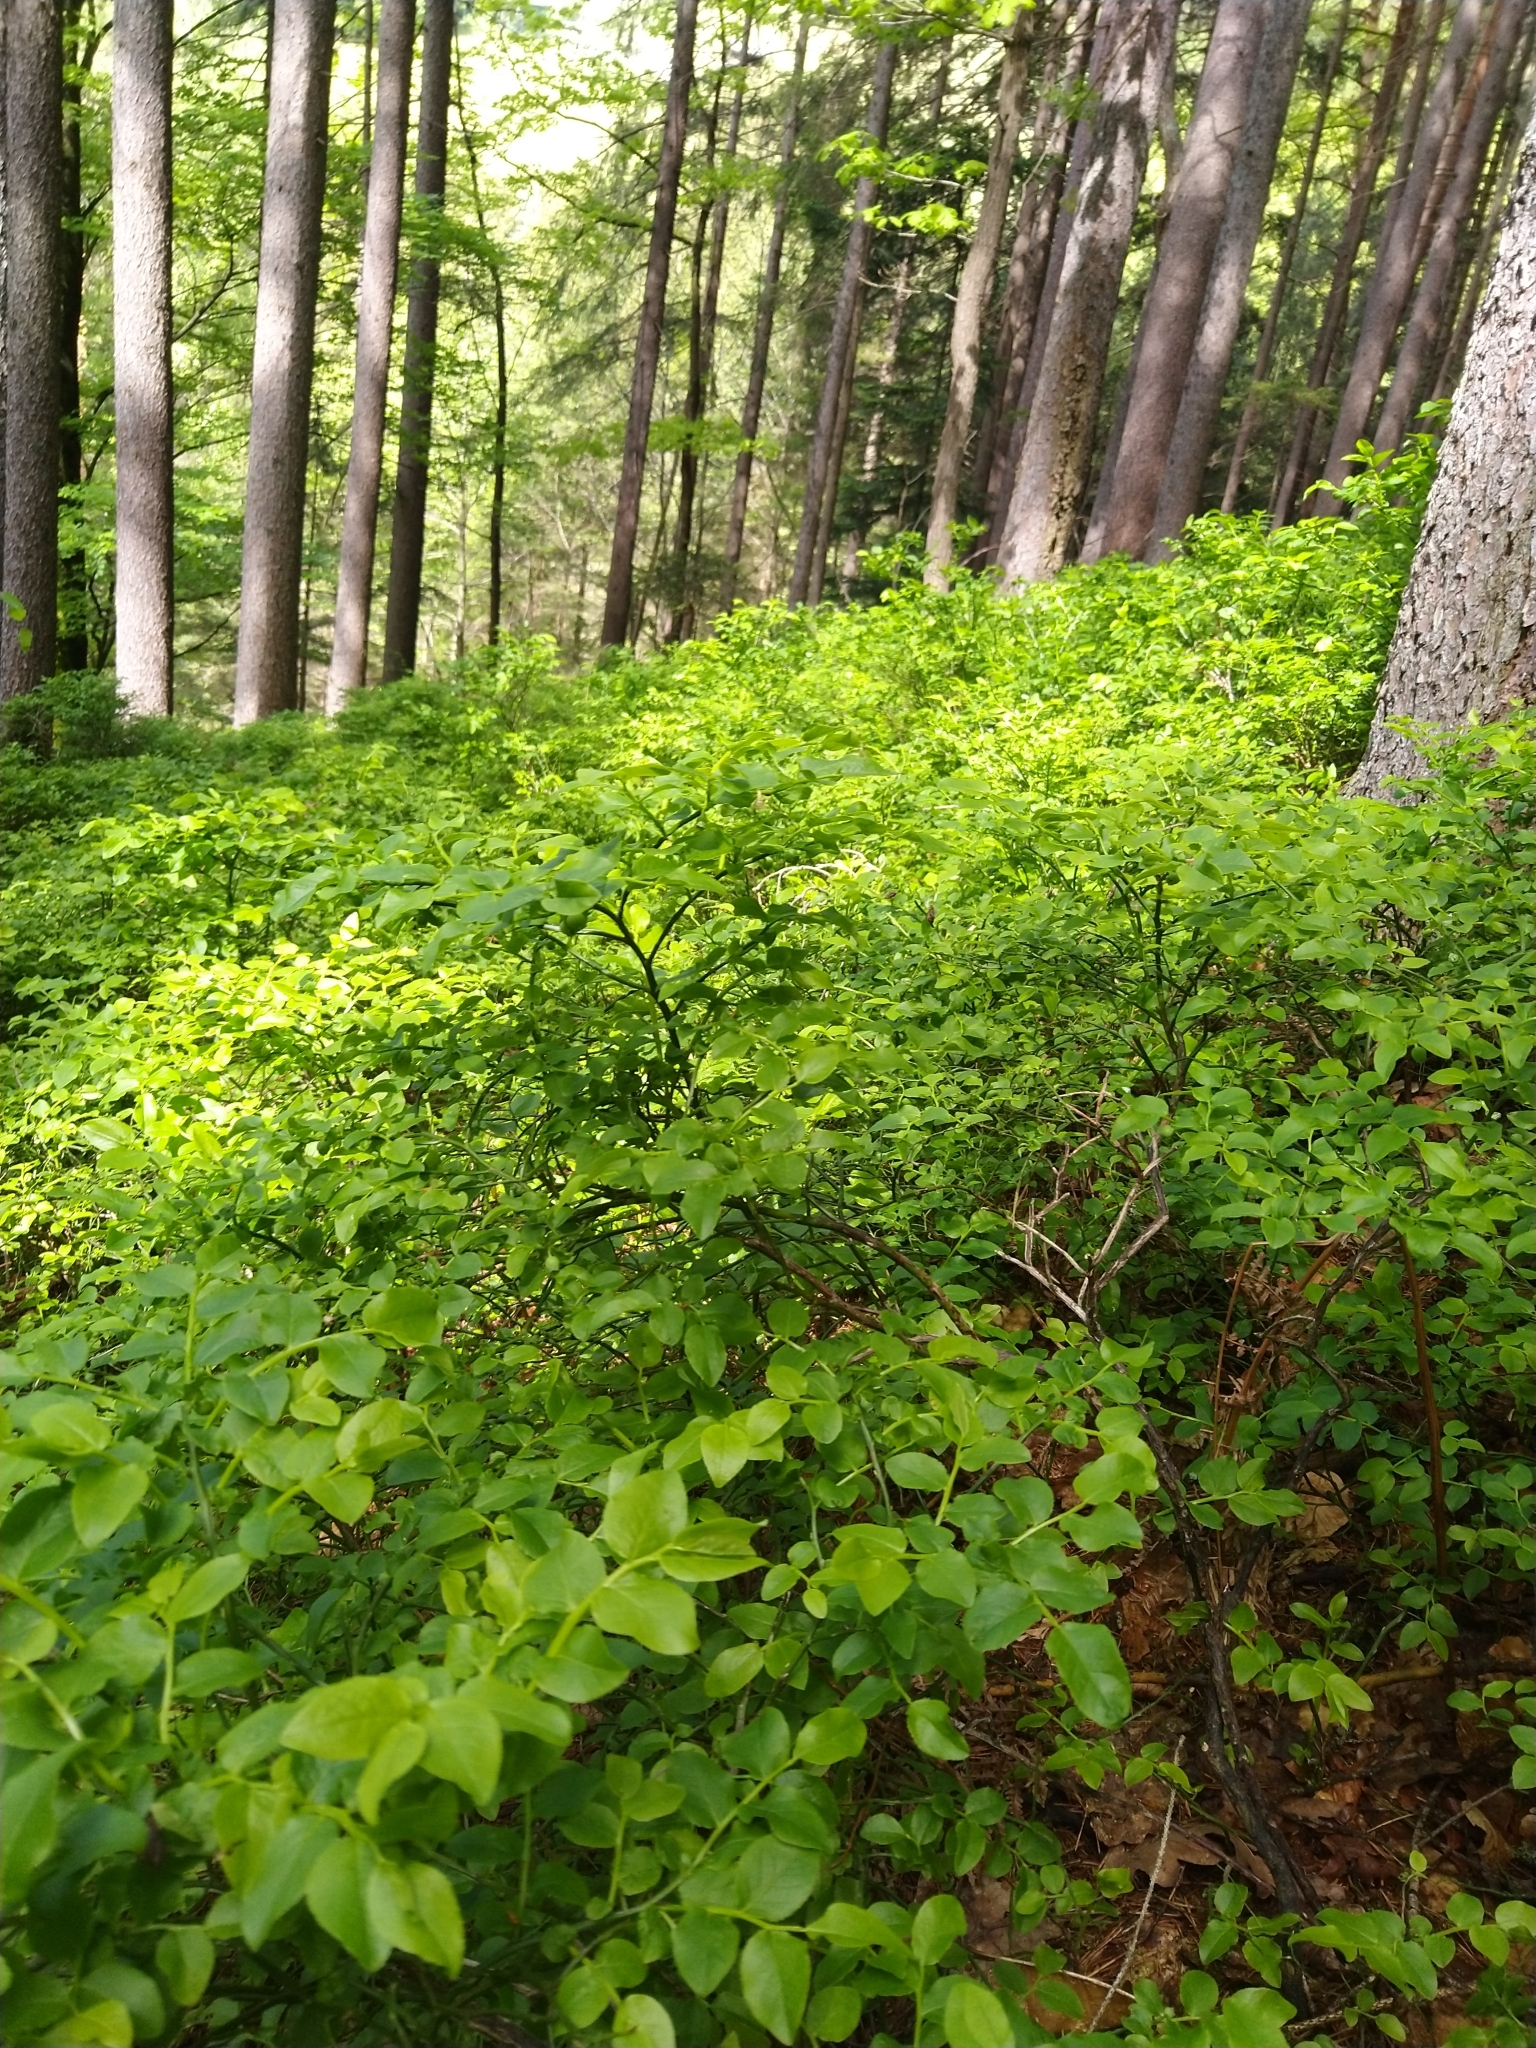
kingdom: Plantae
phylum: Tracheophyta
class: Magnoliopsida
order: Ericales
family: Ericaceae
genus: Vaccinium
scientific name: Vaccinium myrtillus
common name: Bilberry
